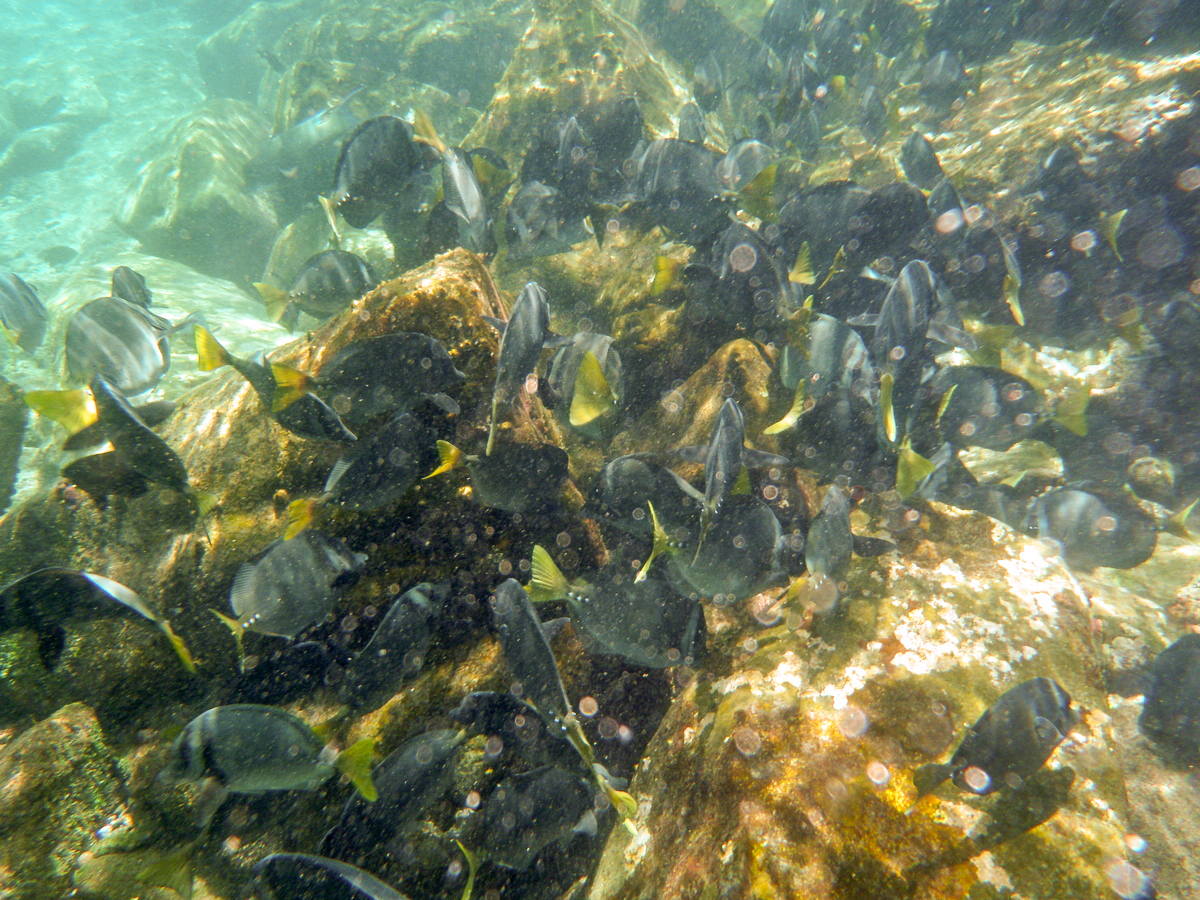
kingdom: Animalia
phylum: Chordata
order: Perciformes
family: Acanthuridae
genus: Prionurus
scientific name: Prionurus laticlavius
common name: Razor surgeonfish
